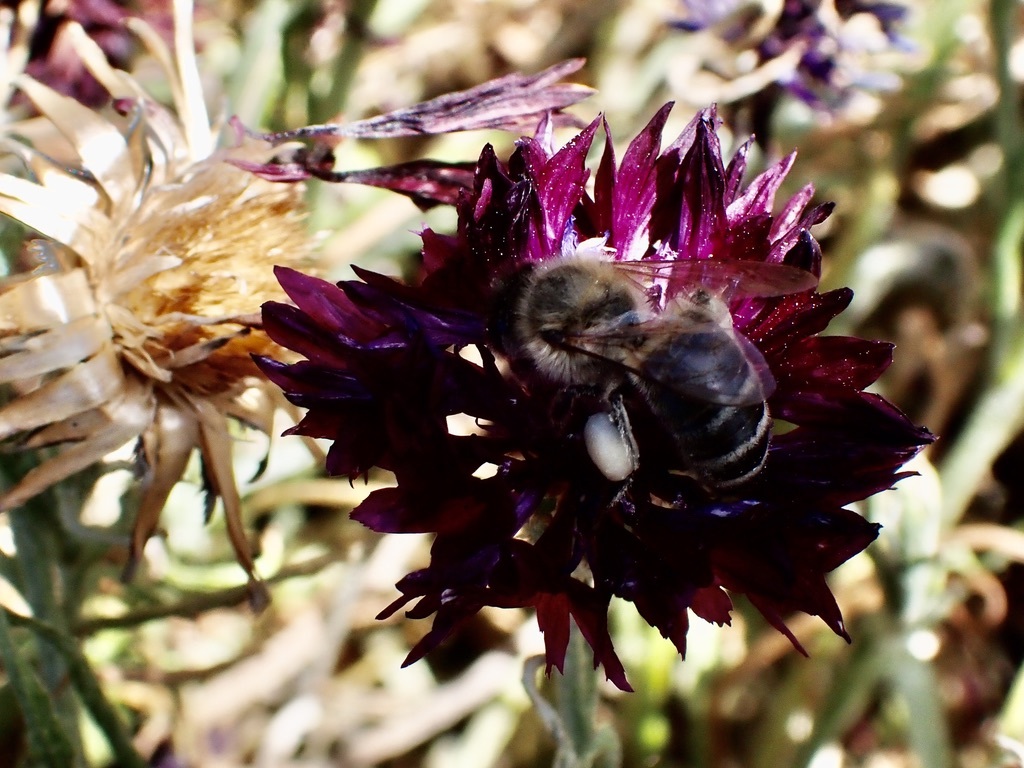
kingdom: Animalia
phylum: Arthropoda
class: Insecta
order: Hymenoptera
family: Apidae
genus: Apis
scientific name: Apis mellifera
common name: Honey bee
